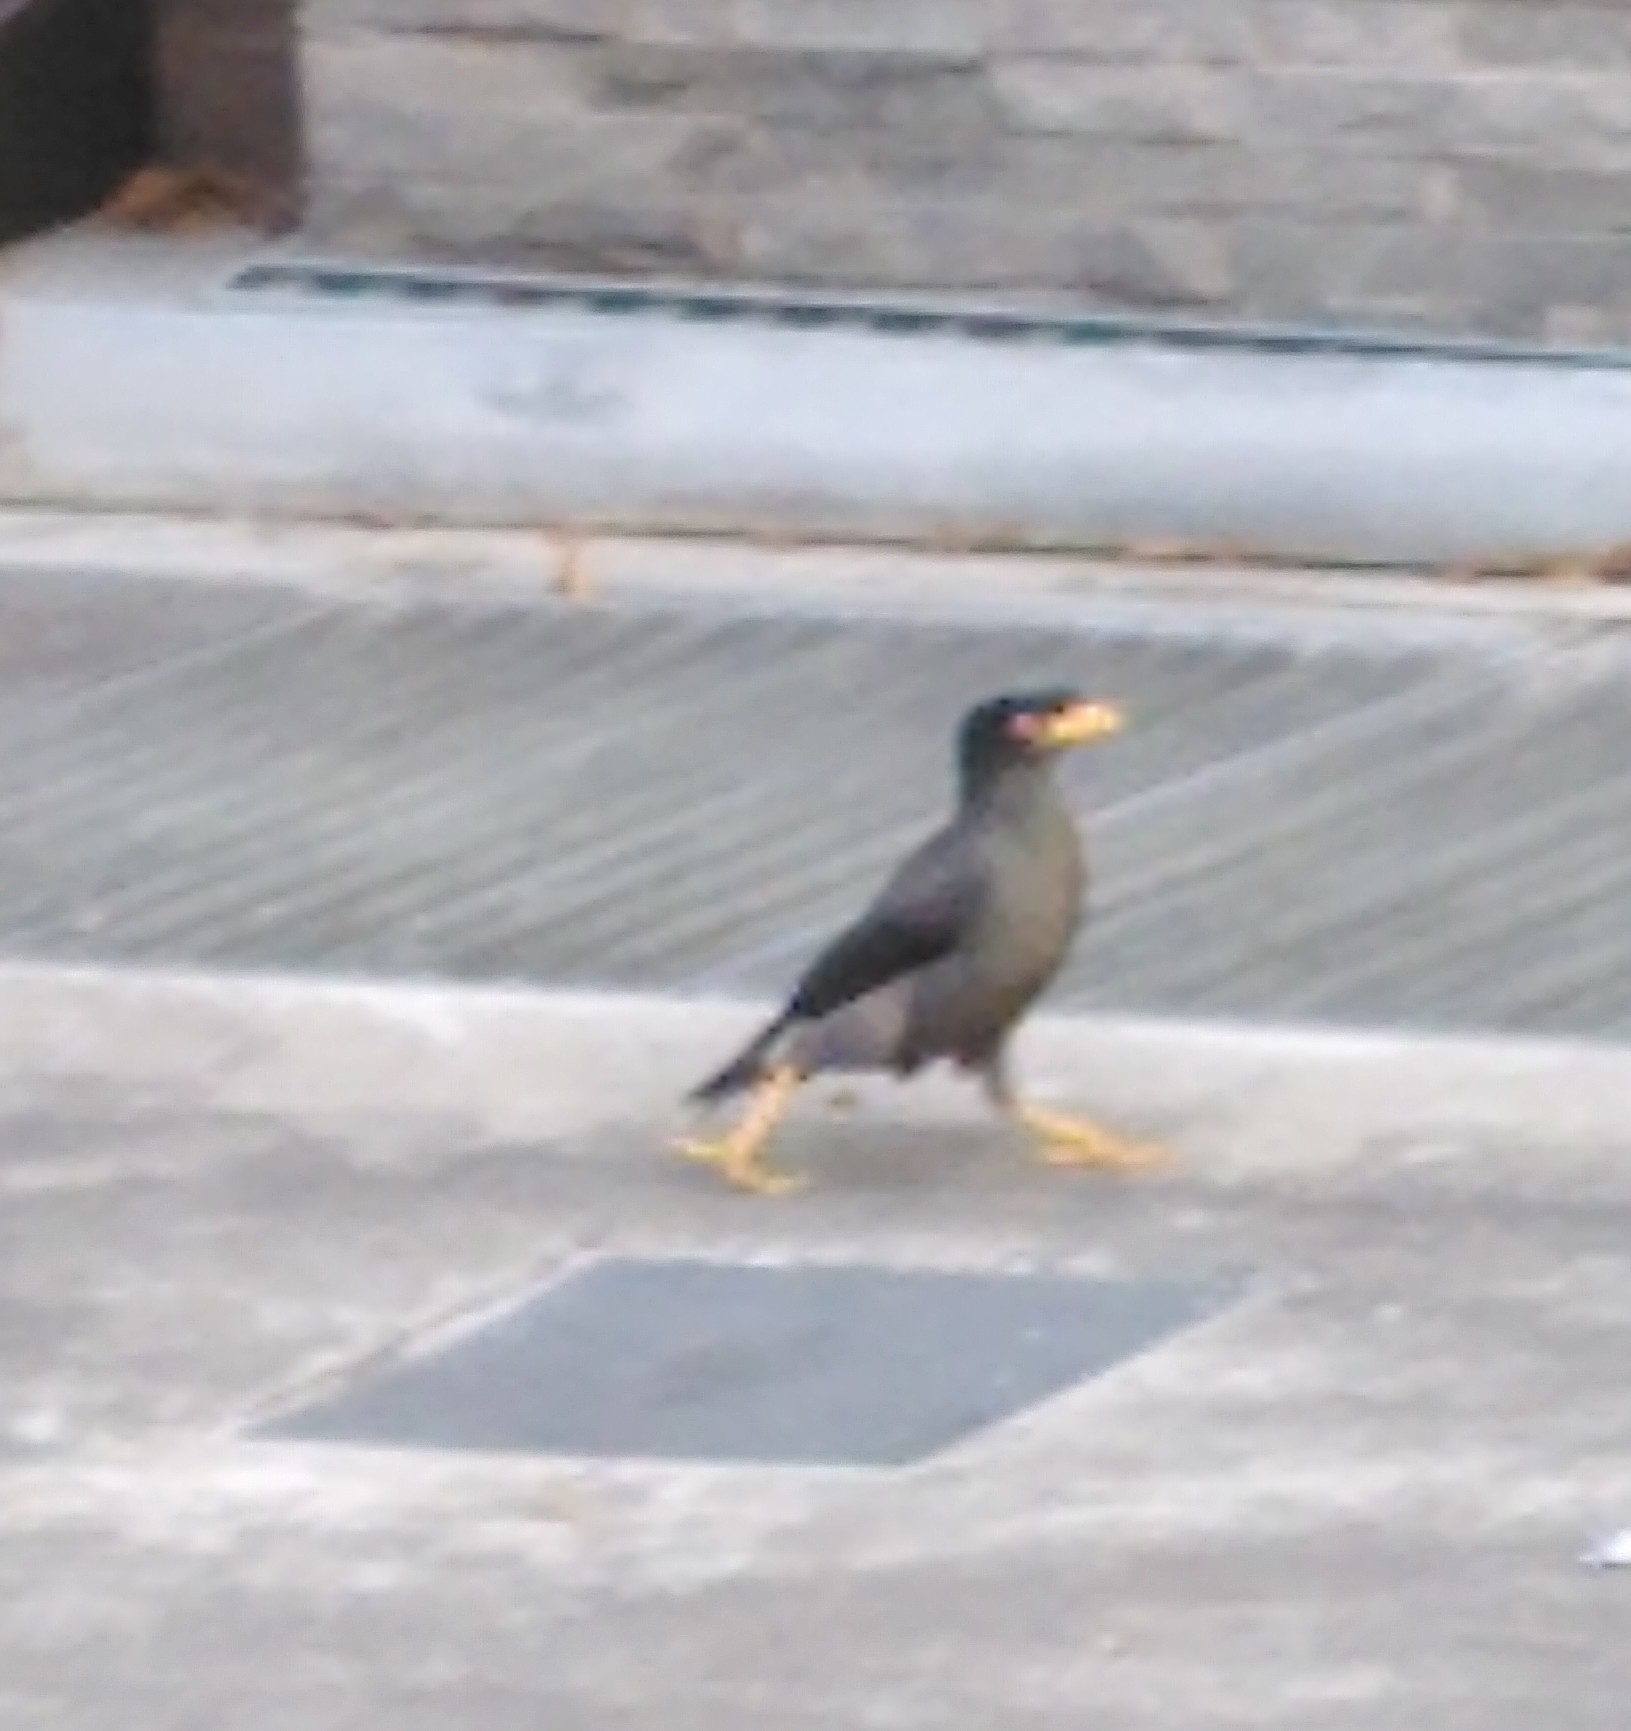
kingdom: Animalia
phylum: Chordata
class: Aves
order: Passeriformes
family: Sturnidae
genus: Acridotheres
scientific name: Acridotheres javanicus
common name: Javan myna
